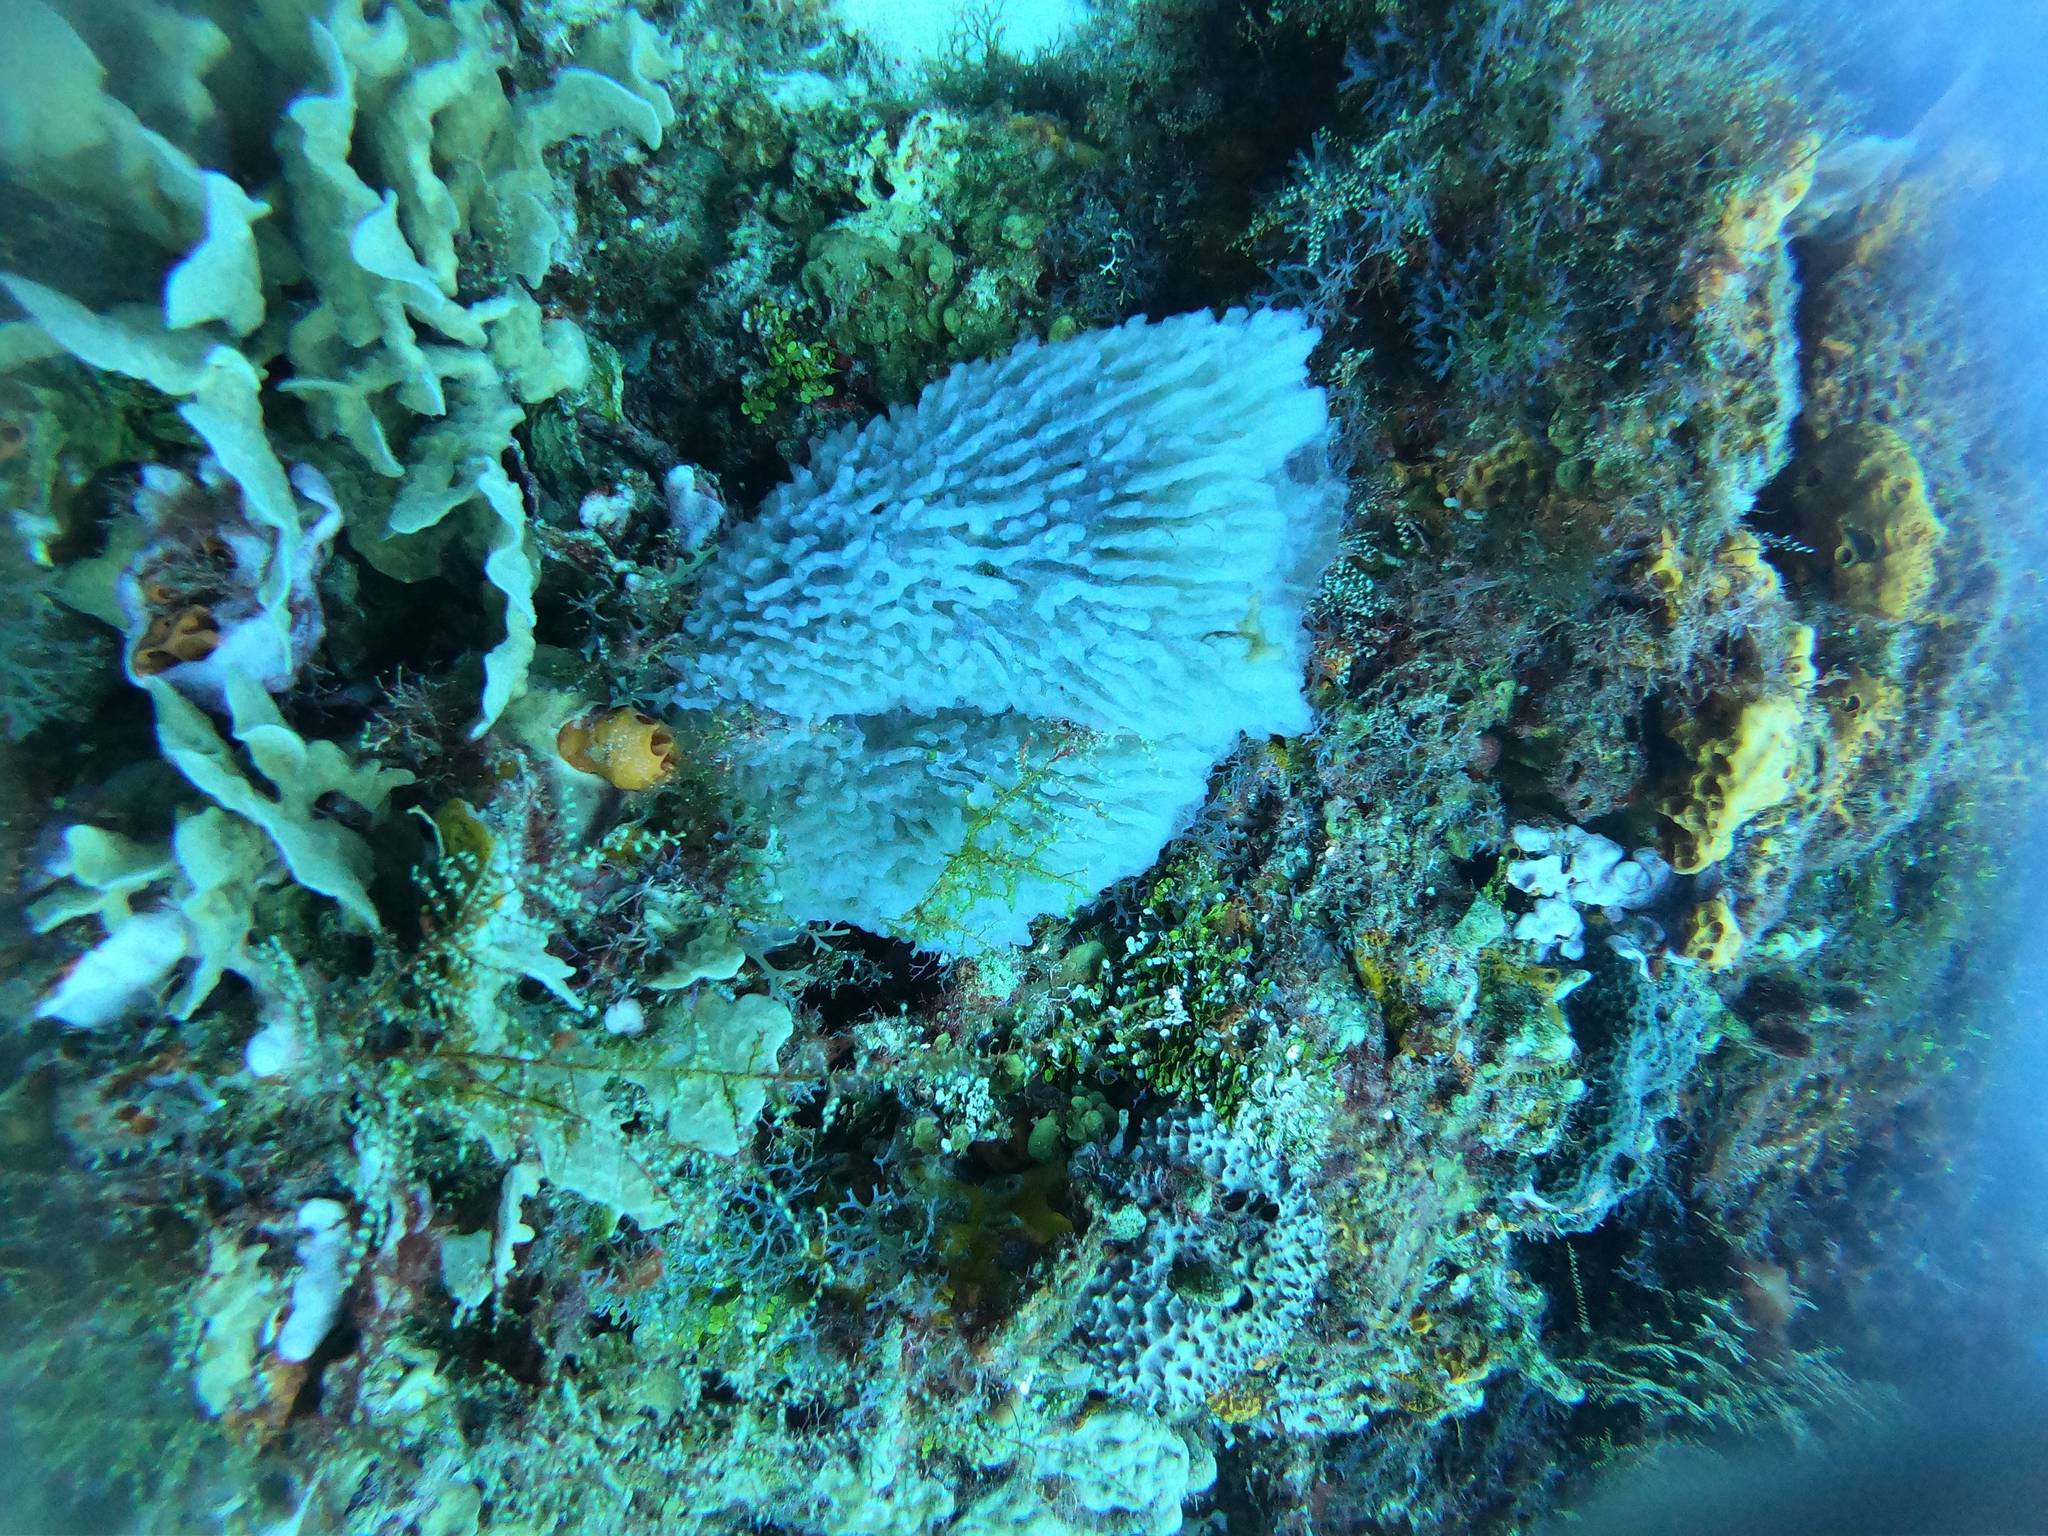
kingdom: Animalia
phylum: Porifera
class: Demospongiae
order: Haplosclerida
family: Callyspongiidae
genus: Callyspongia
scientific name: Callyspongia plicifera
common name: Azure vase sponge
